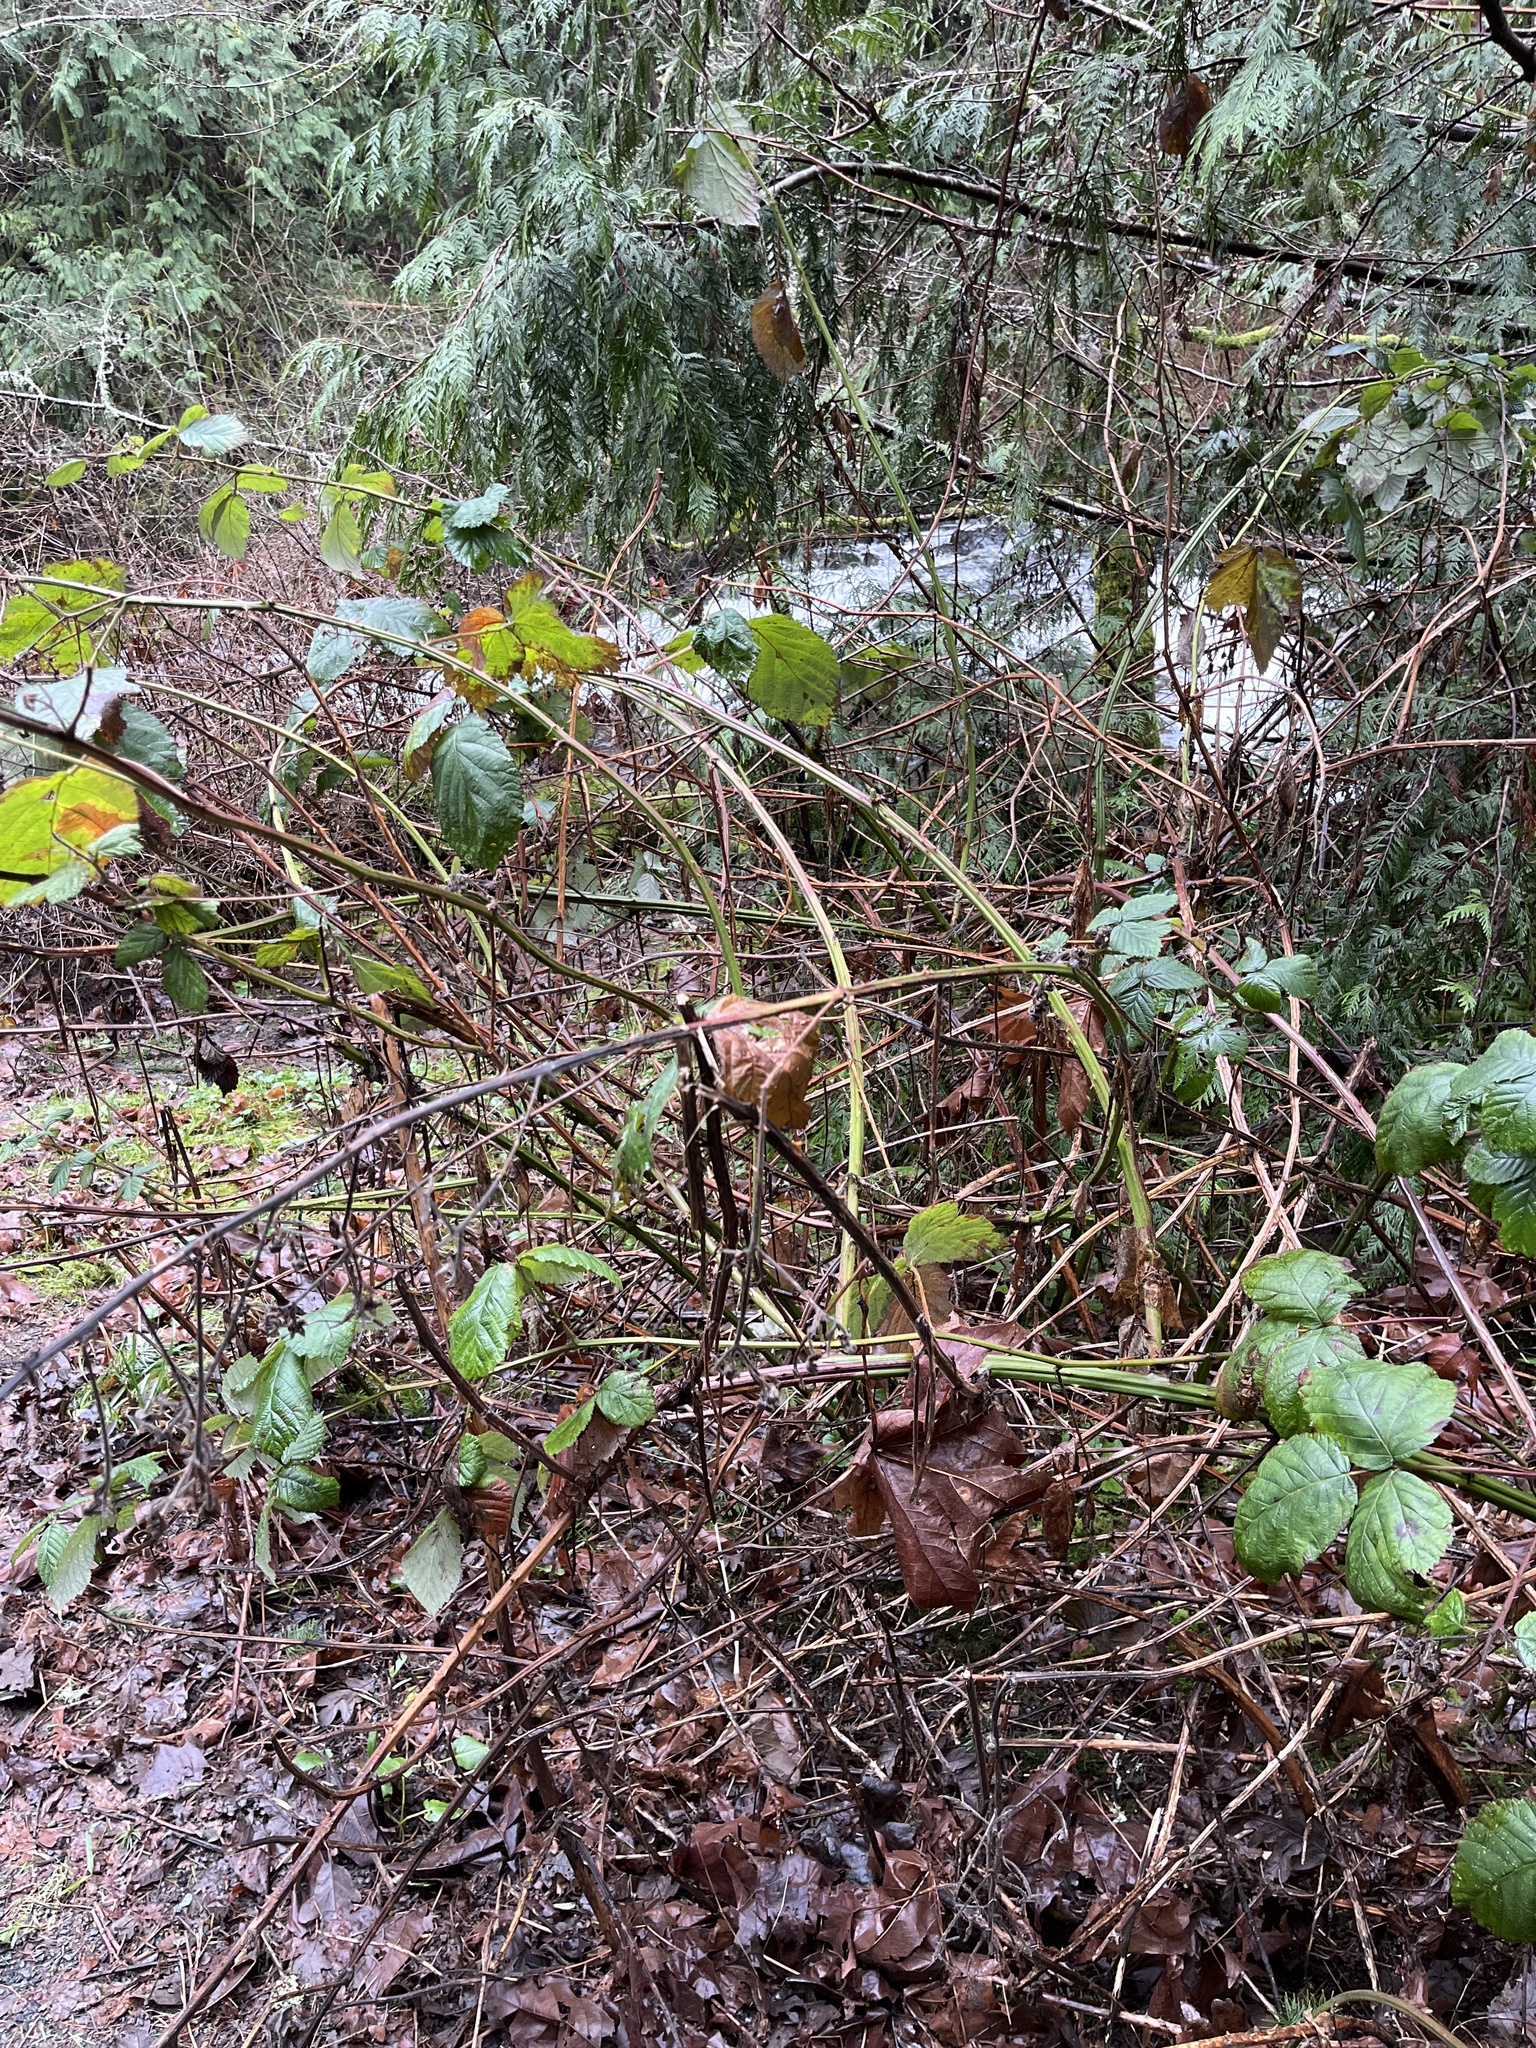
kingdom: Plantae
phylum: Tracheophyta
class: Magnoliopsida
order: Rosales
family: Rosaceae
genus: Rubus
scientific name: Rubus bifrons
